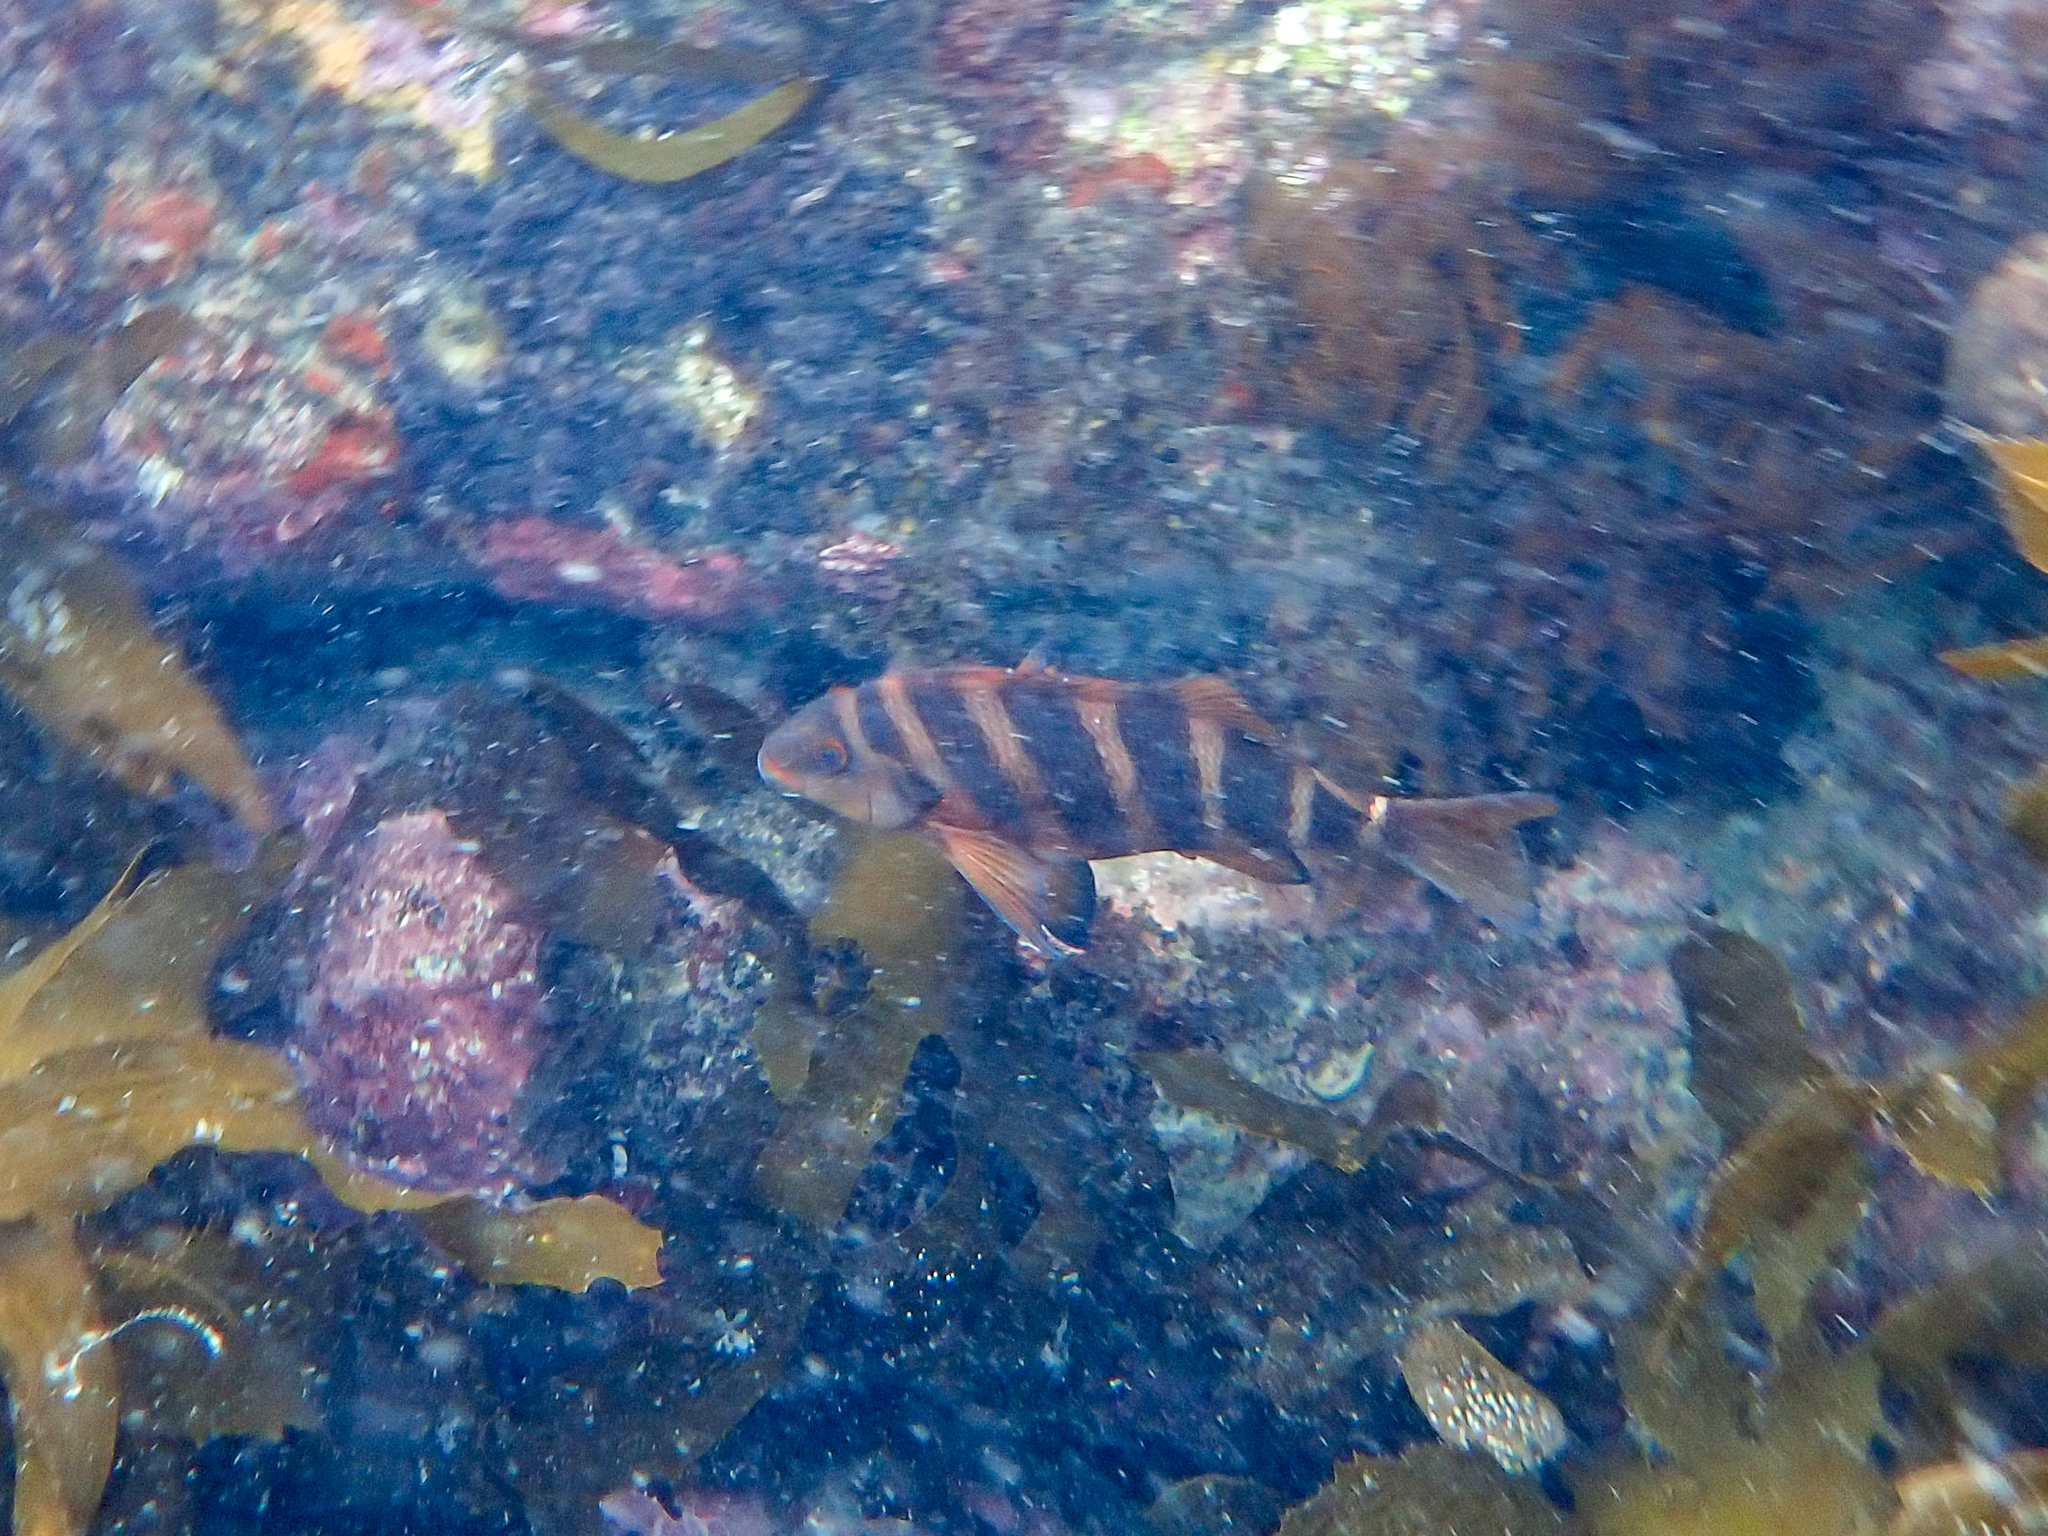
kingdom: Animalia
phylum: Chordata
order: Perciformes
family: Cheilodactylidae
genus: Cheilodactylus
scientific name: Cheilodactylus spectabilis
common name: Red moki
